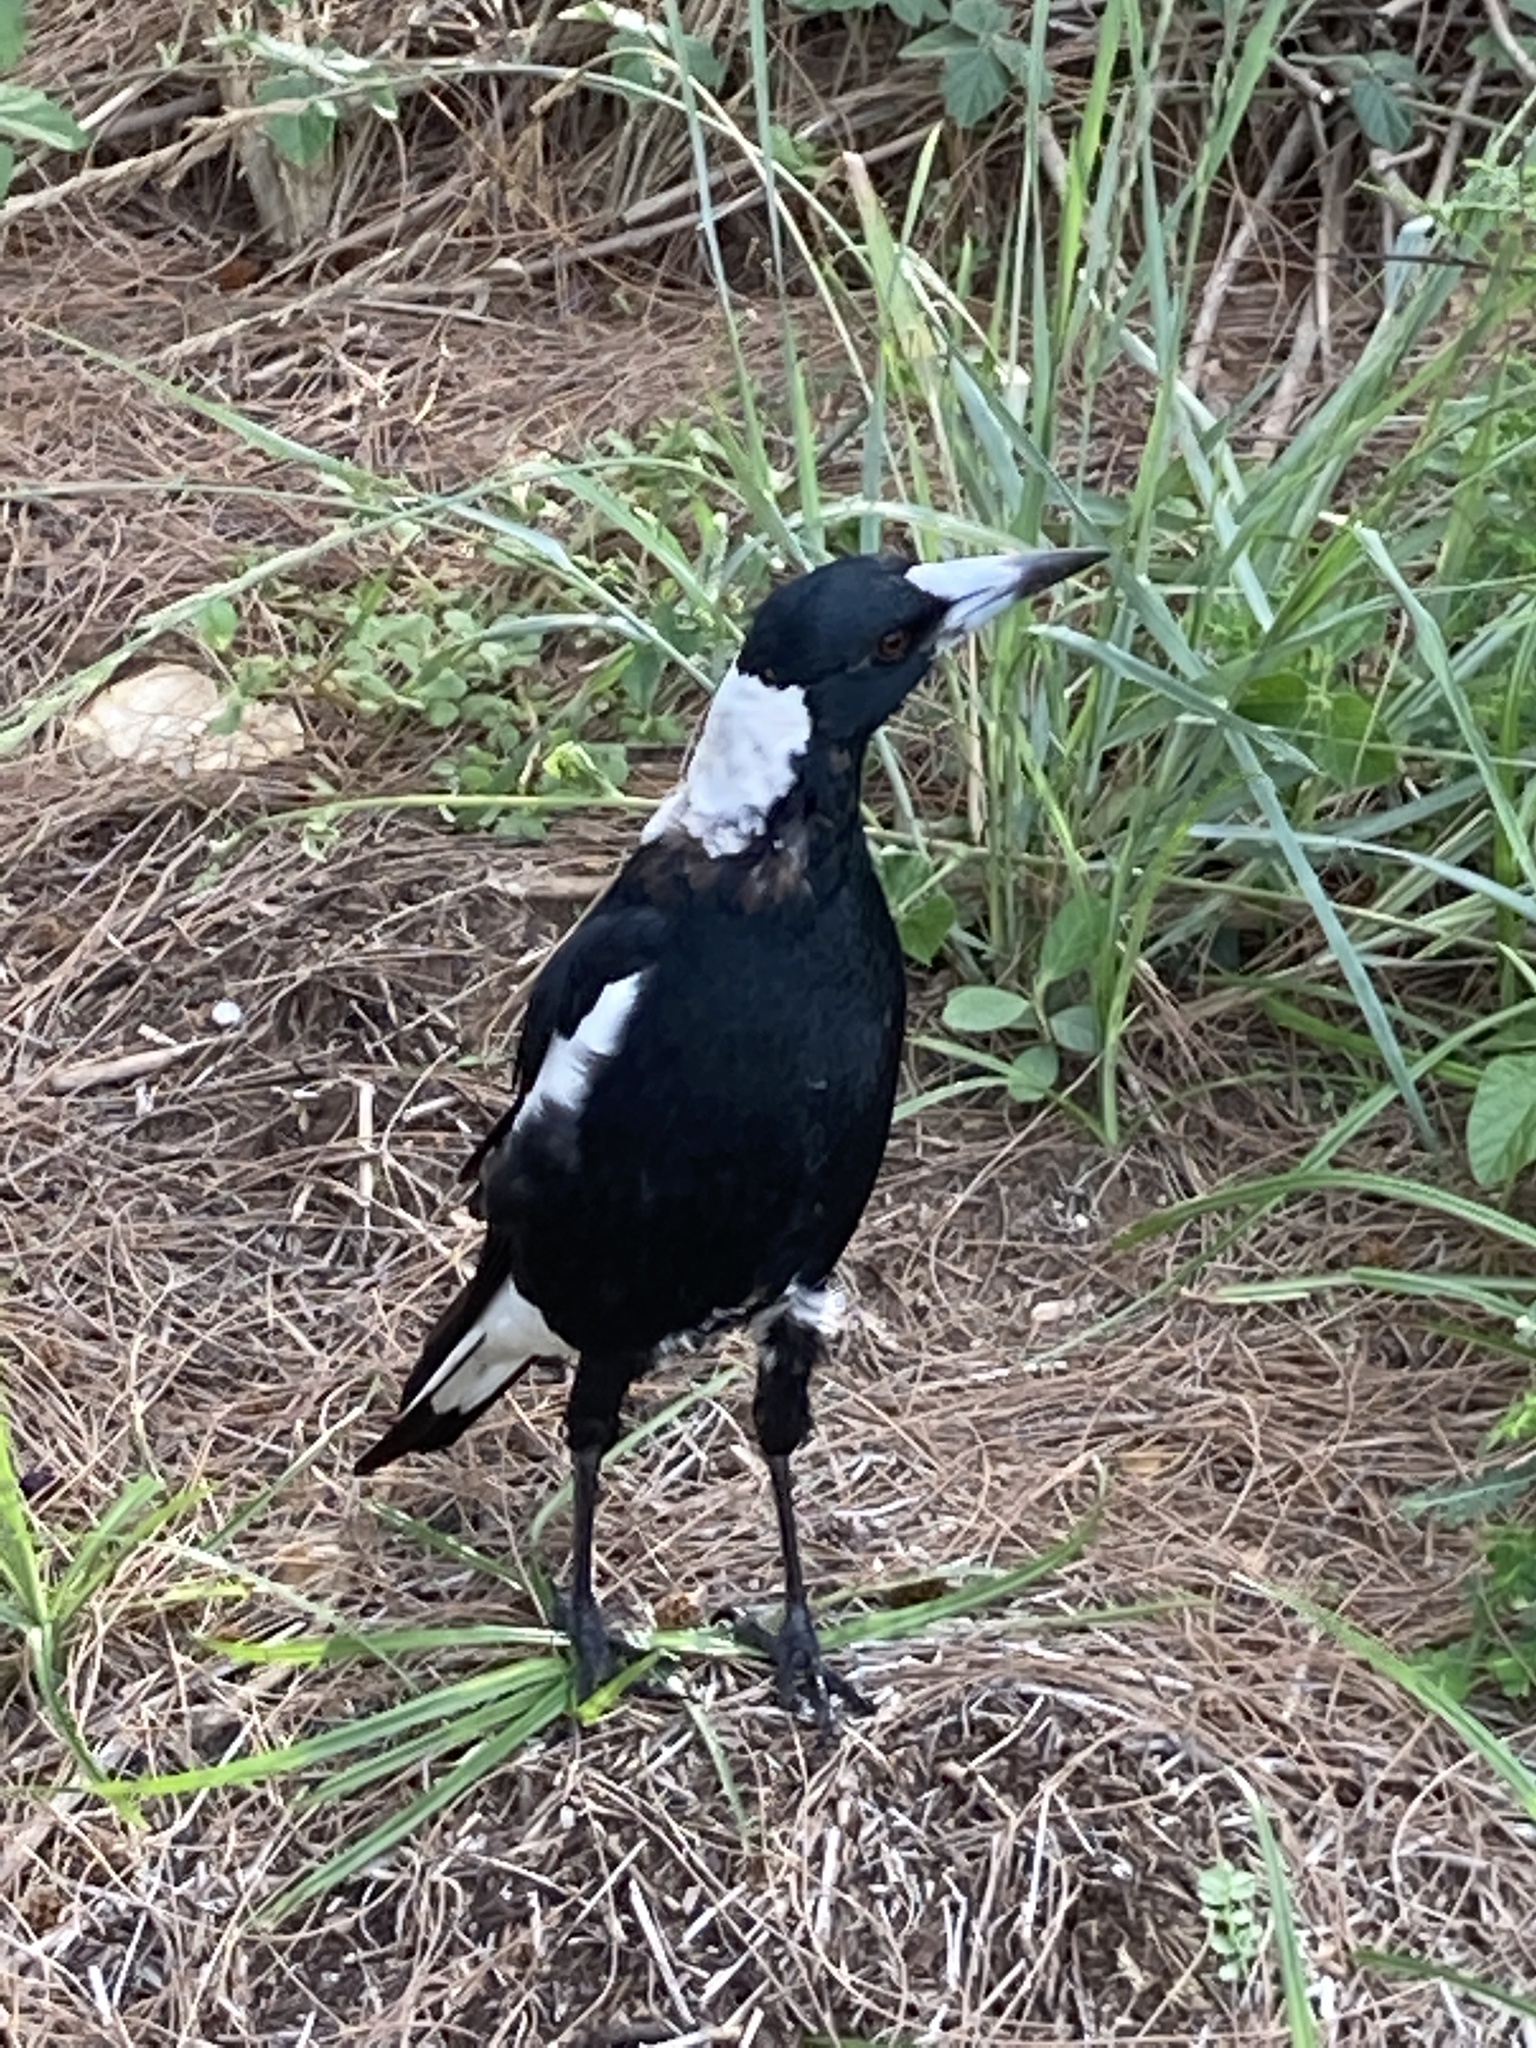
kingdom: Animalia
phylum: Chordata
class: Aves
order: Passeriformes
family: Cracticidae
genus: Gymnorhina
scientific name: Gymnorhina tibicen
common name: Australian magpie
